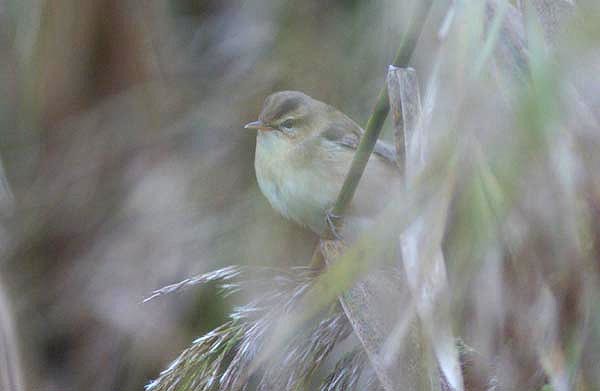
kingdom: Animalia
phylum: Chordata
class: Aves
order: Passeriformes
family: Acrocephalidae
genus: Acrocephalus
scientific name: Acrocephalus bistrigiceps
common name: Black-browed reed warbler
